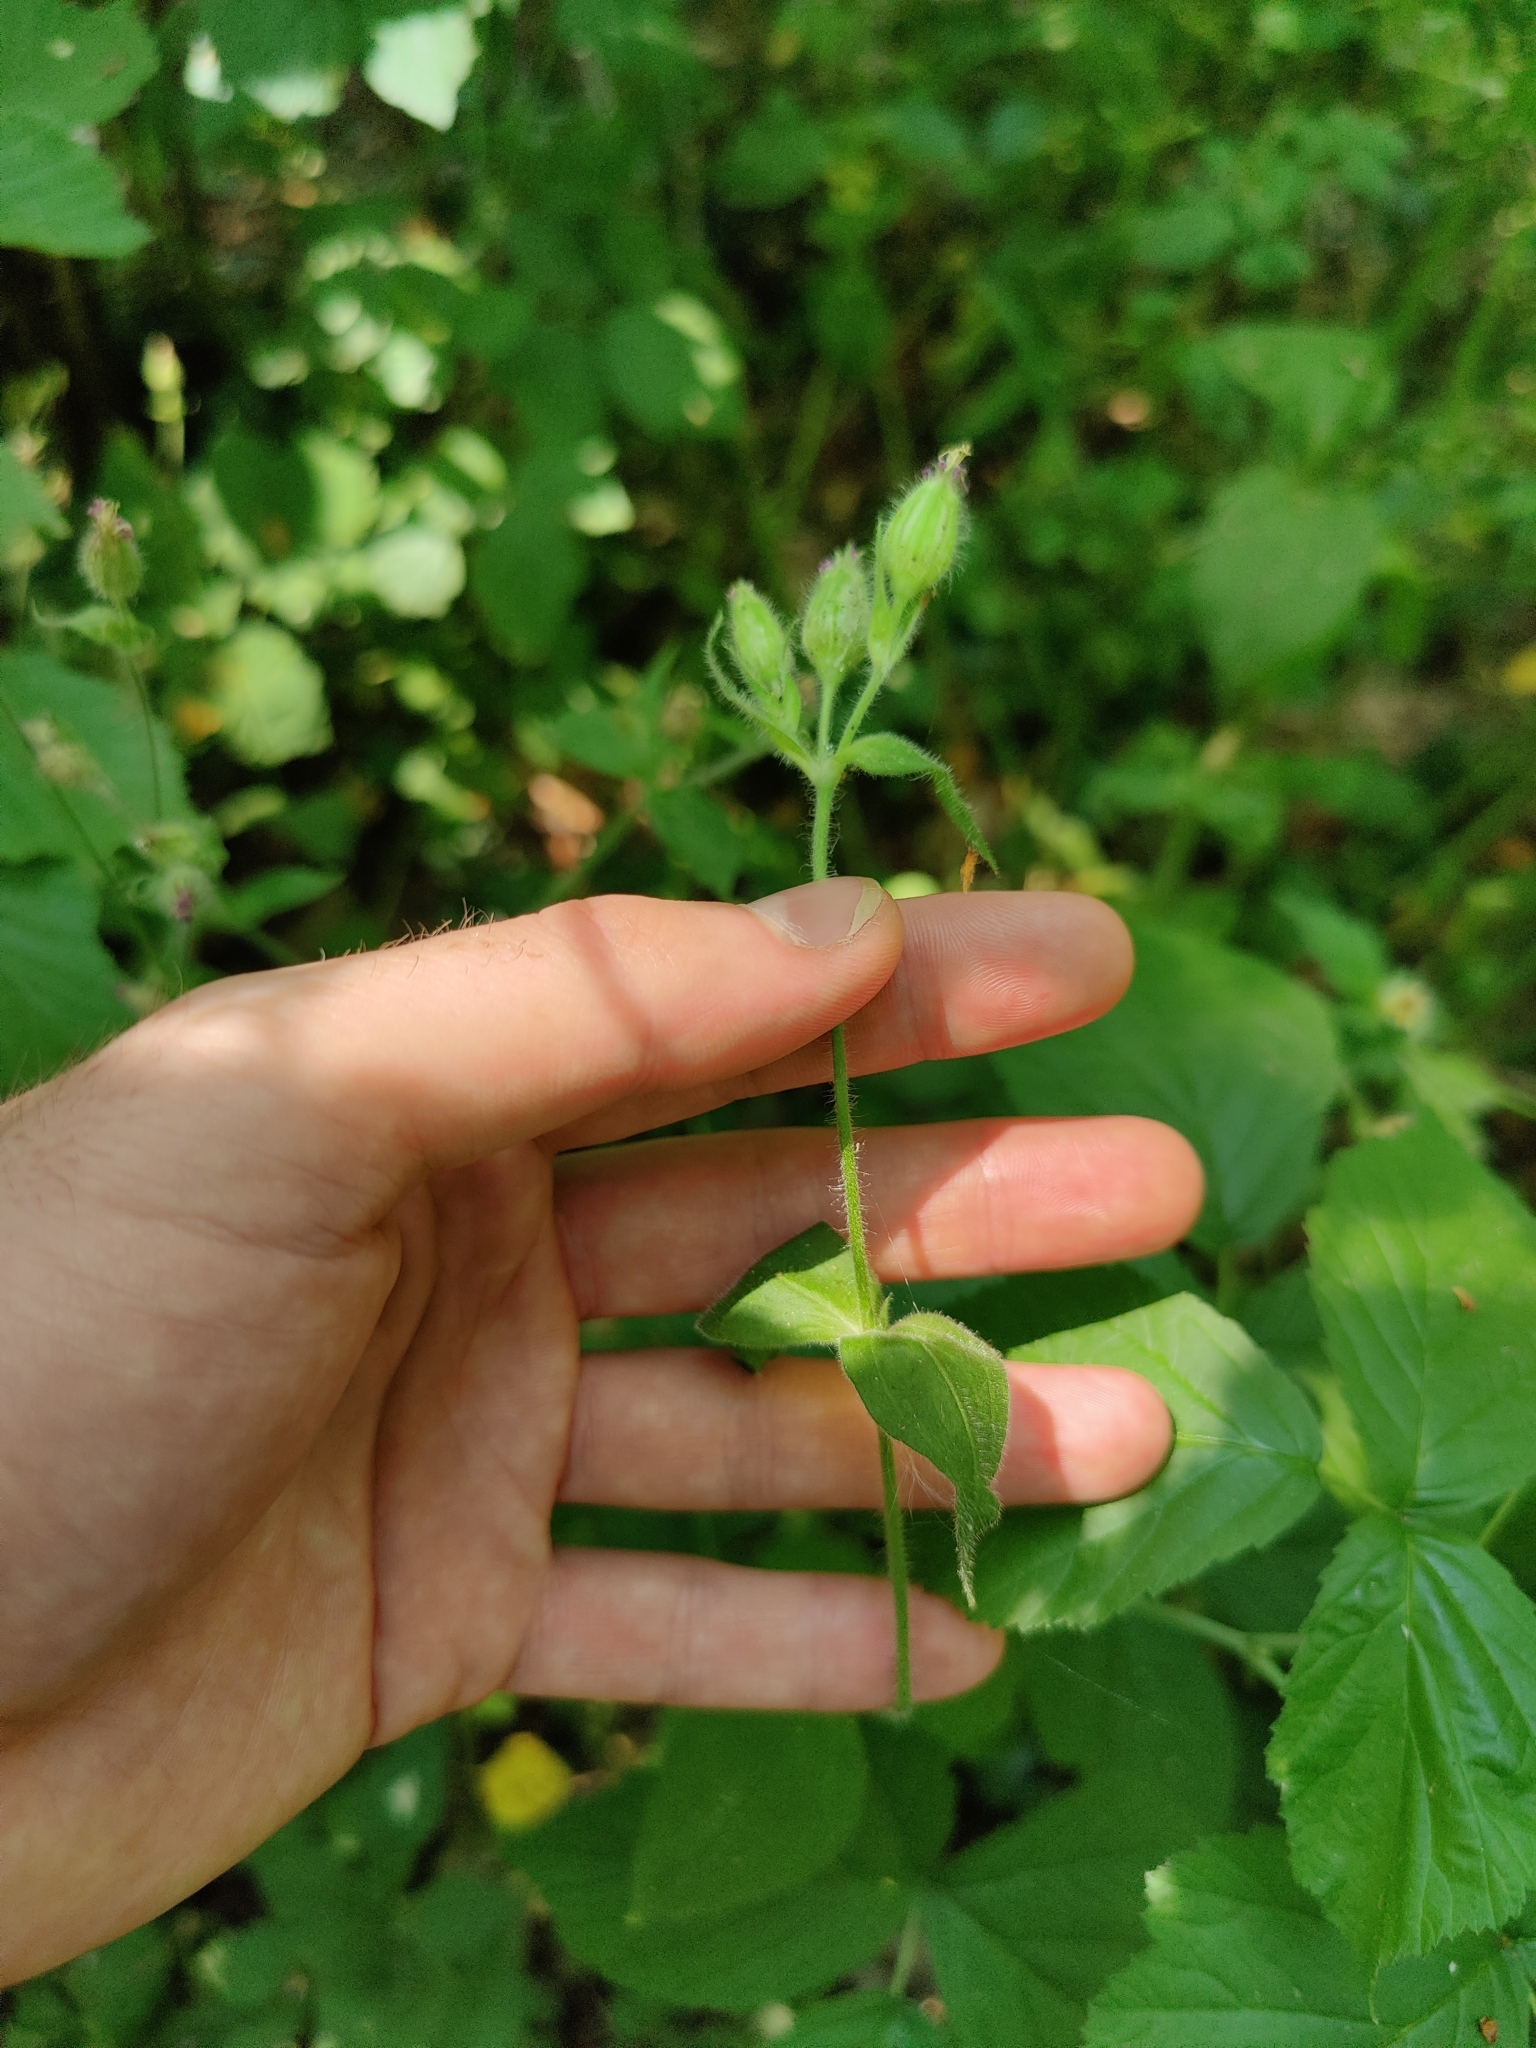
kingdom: Plantae
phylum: Tracheophyta
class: Magnoliopsida
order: Caryophyllales
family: Caryophyllaceae
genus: Silene
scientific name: Silene dioica
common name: Red campion
